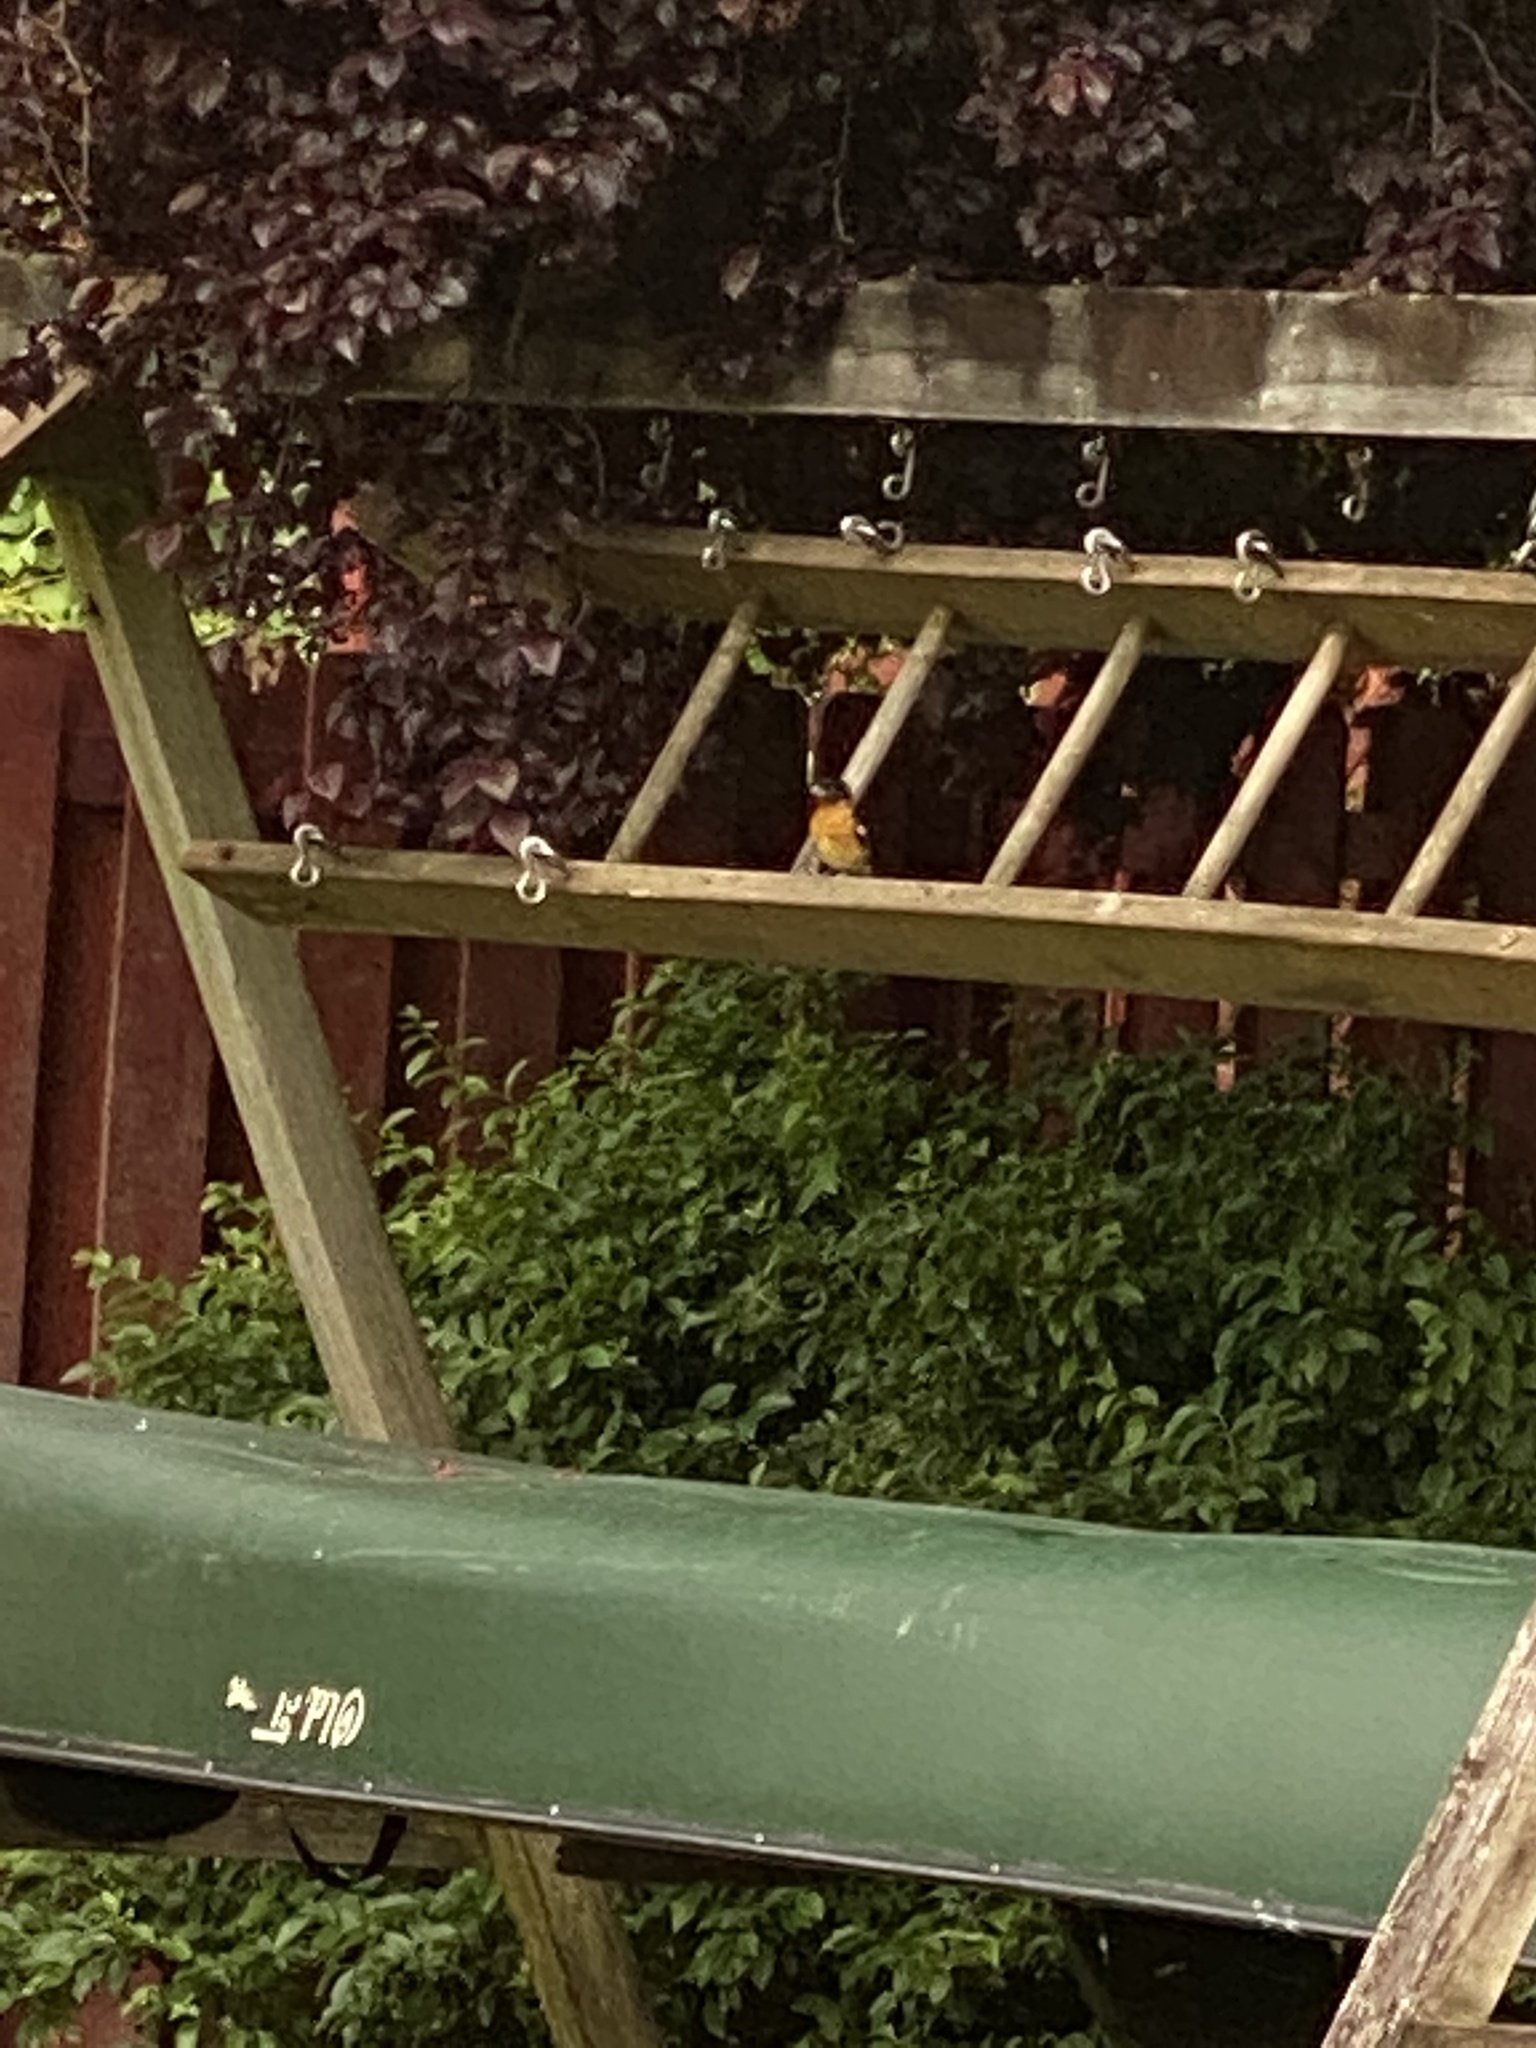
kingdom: Animalia
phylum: Chordata
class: Aves
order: Passeriformes
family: Cardinalidae
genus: Pheucticus
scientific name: Pheucticus melanocephalus
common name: Black-headed grosbeak
